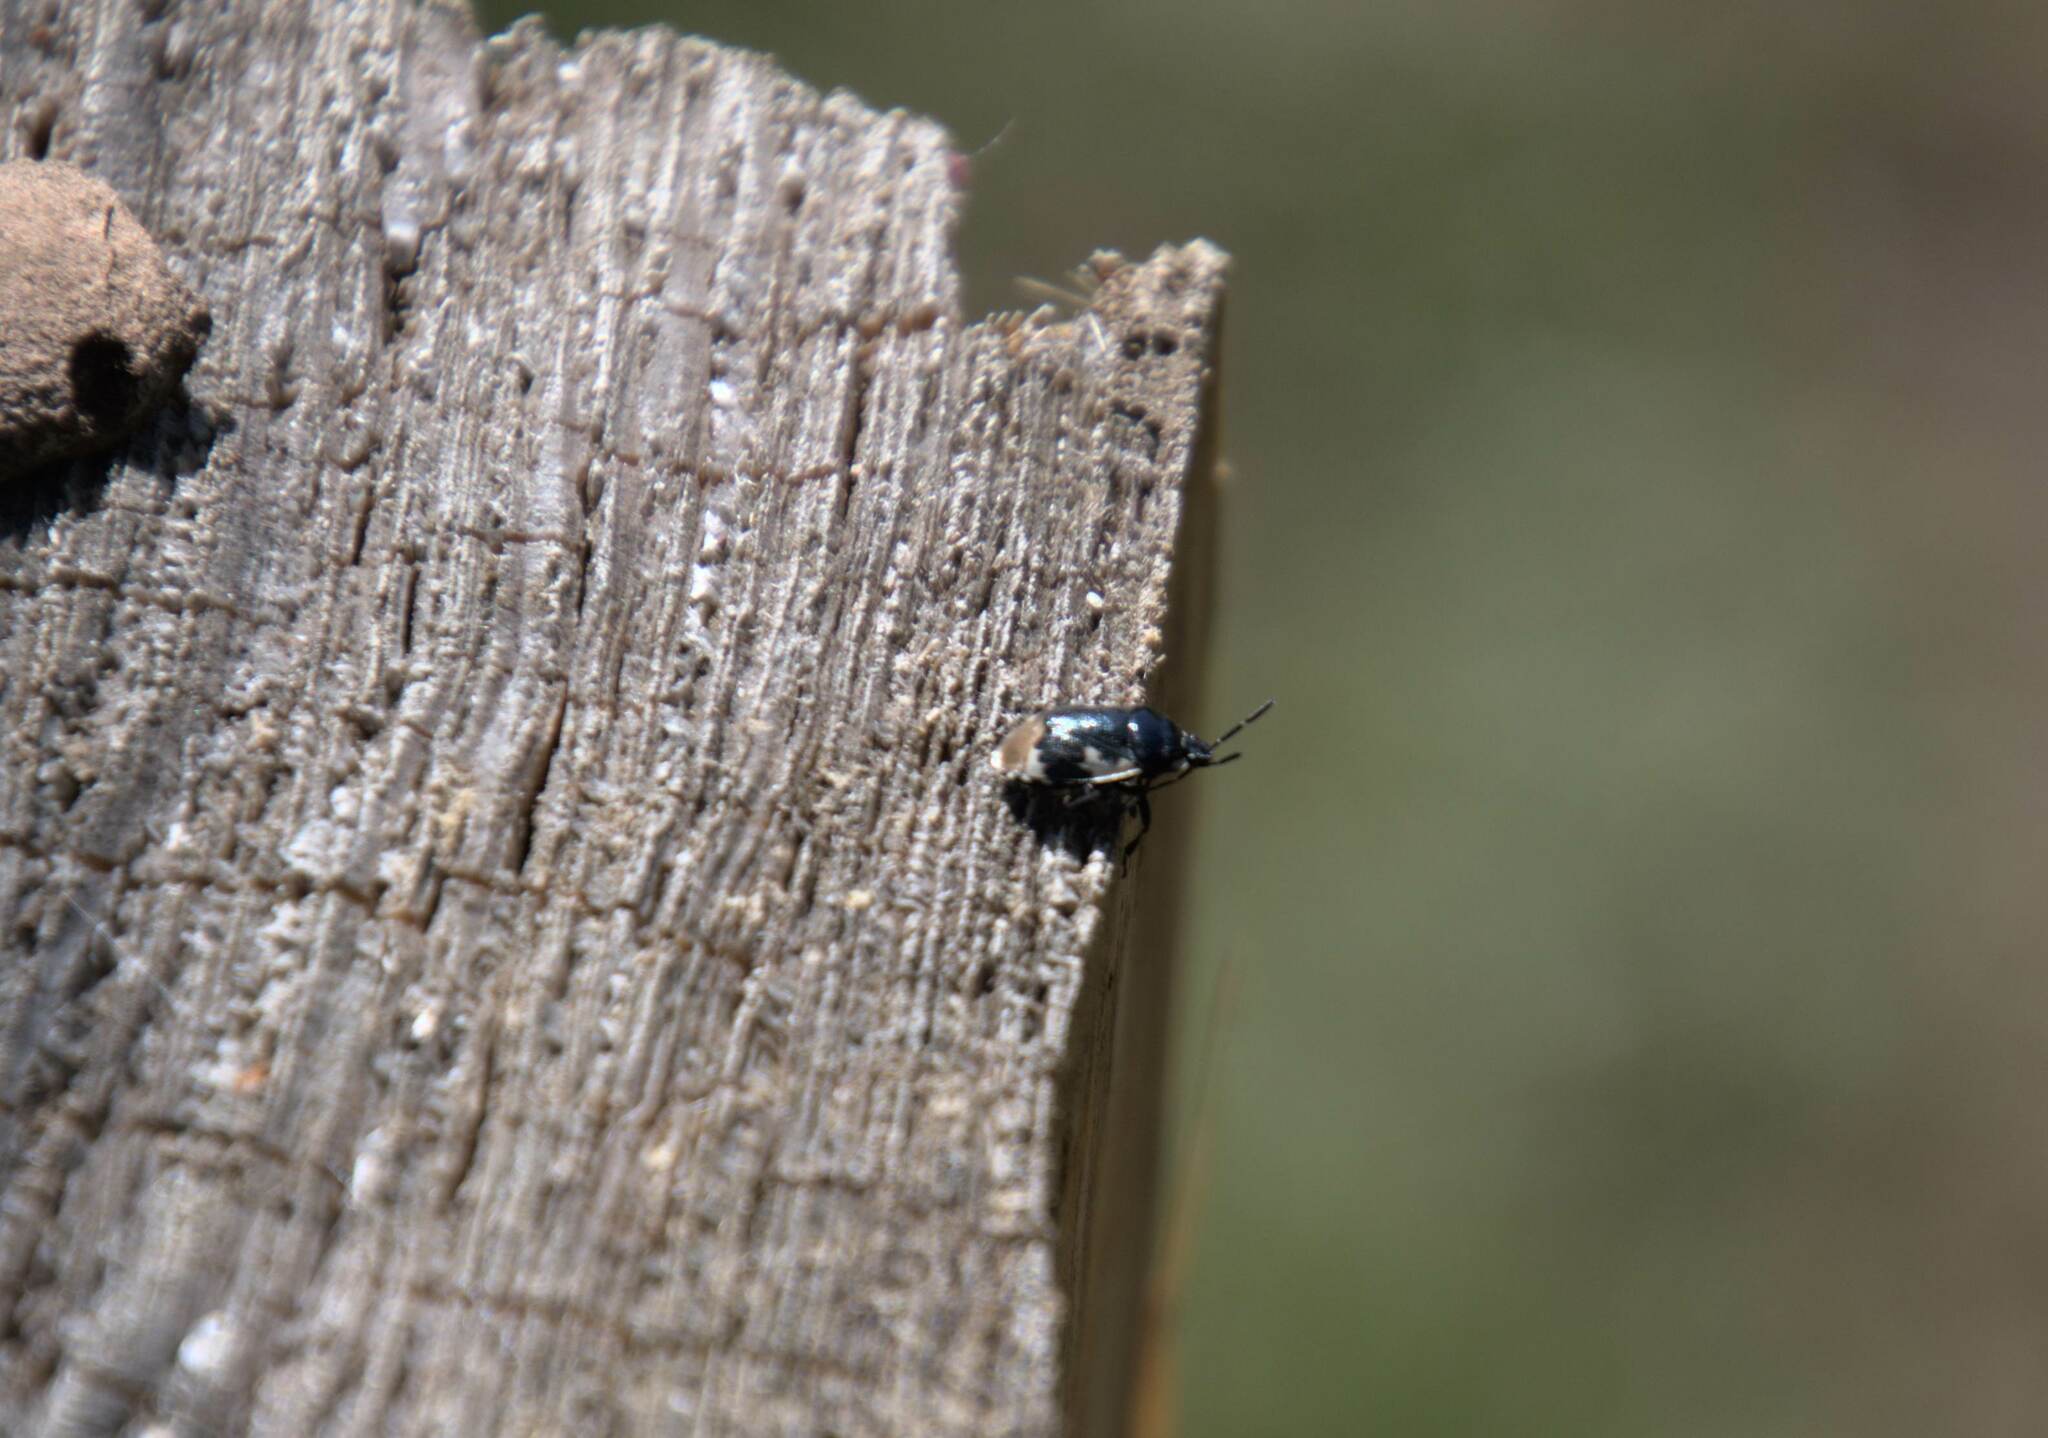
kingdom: Animalia
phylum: Arthropoda
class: Insecta
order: Hemiptera
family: Cydnidae
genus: Tritomegas
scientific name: Tritomegas bicolor
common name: Pied shieldbug
